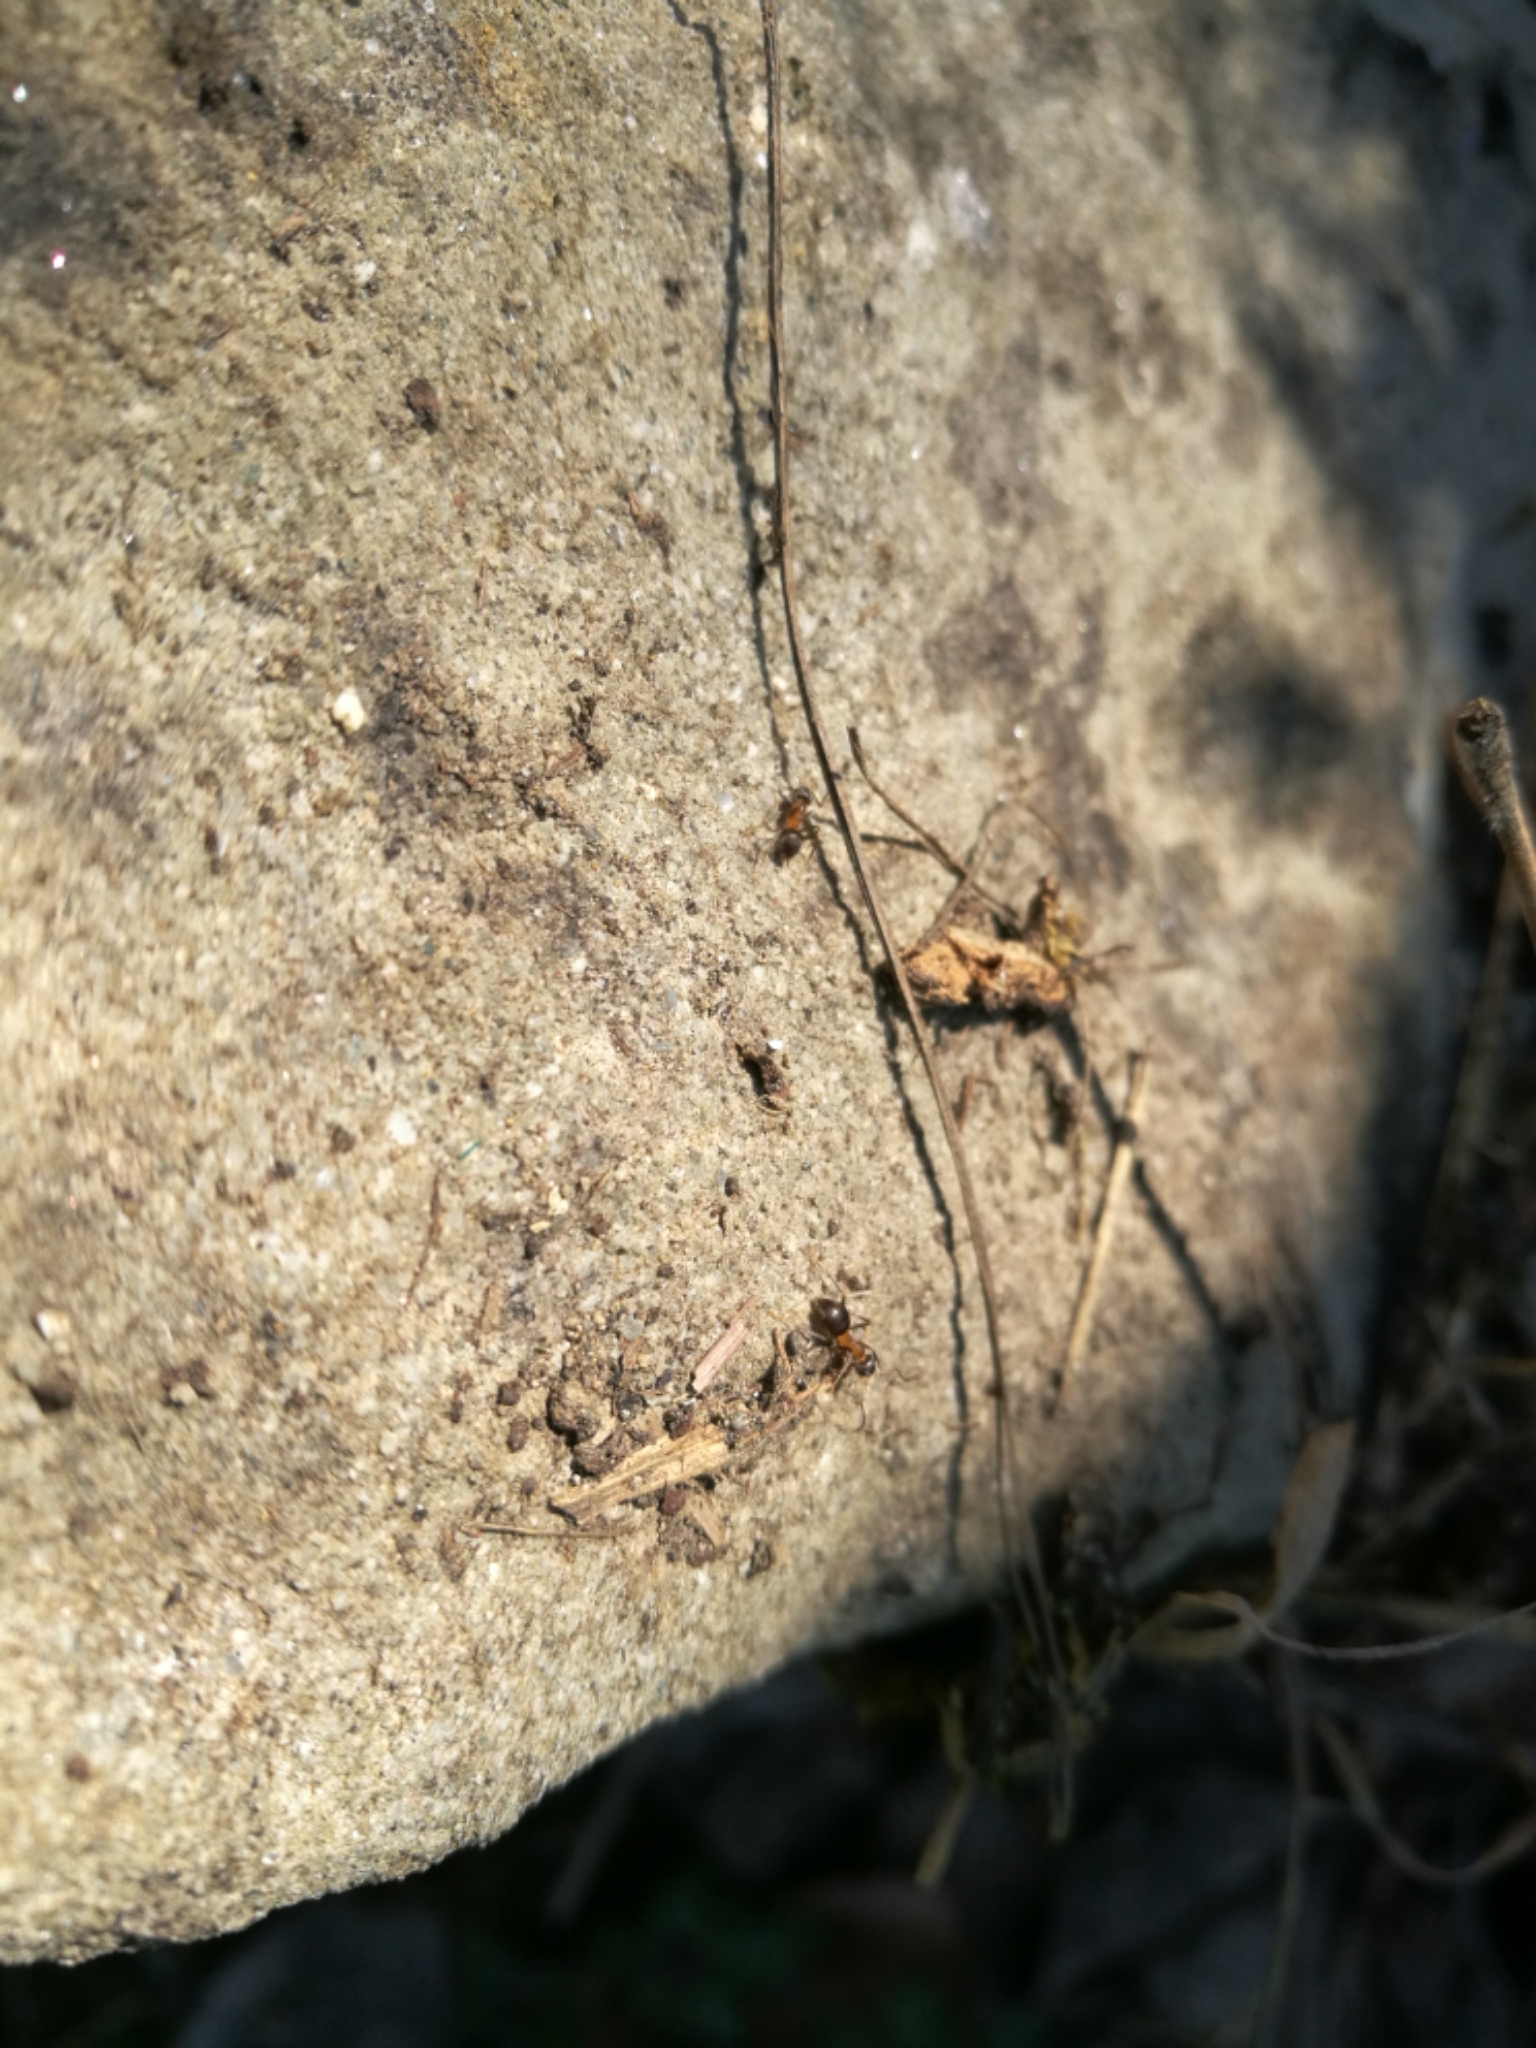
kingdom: Animalia
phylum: Arthropoda
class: Insecta
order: Hymenoptera
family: Formicidae
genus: Lasius
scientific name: Lasius emarginatus
